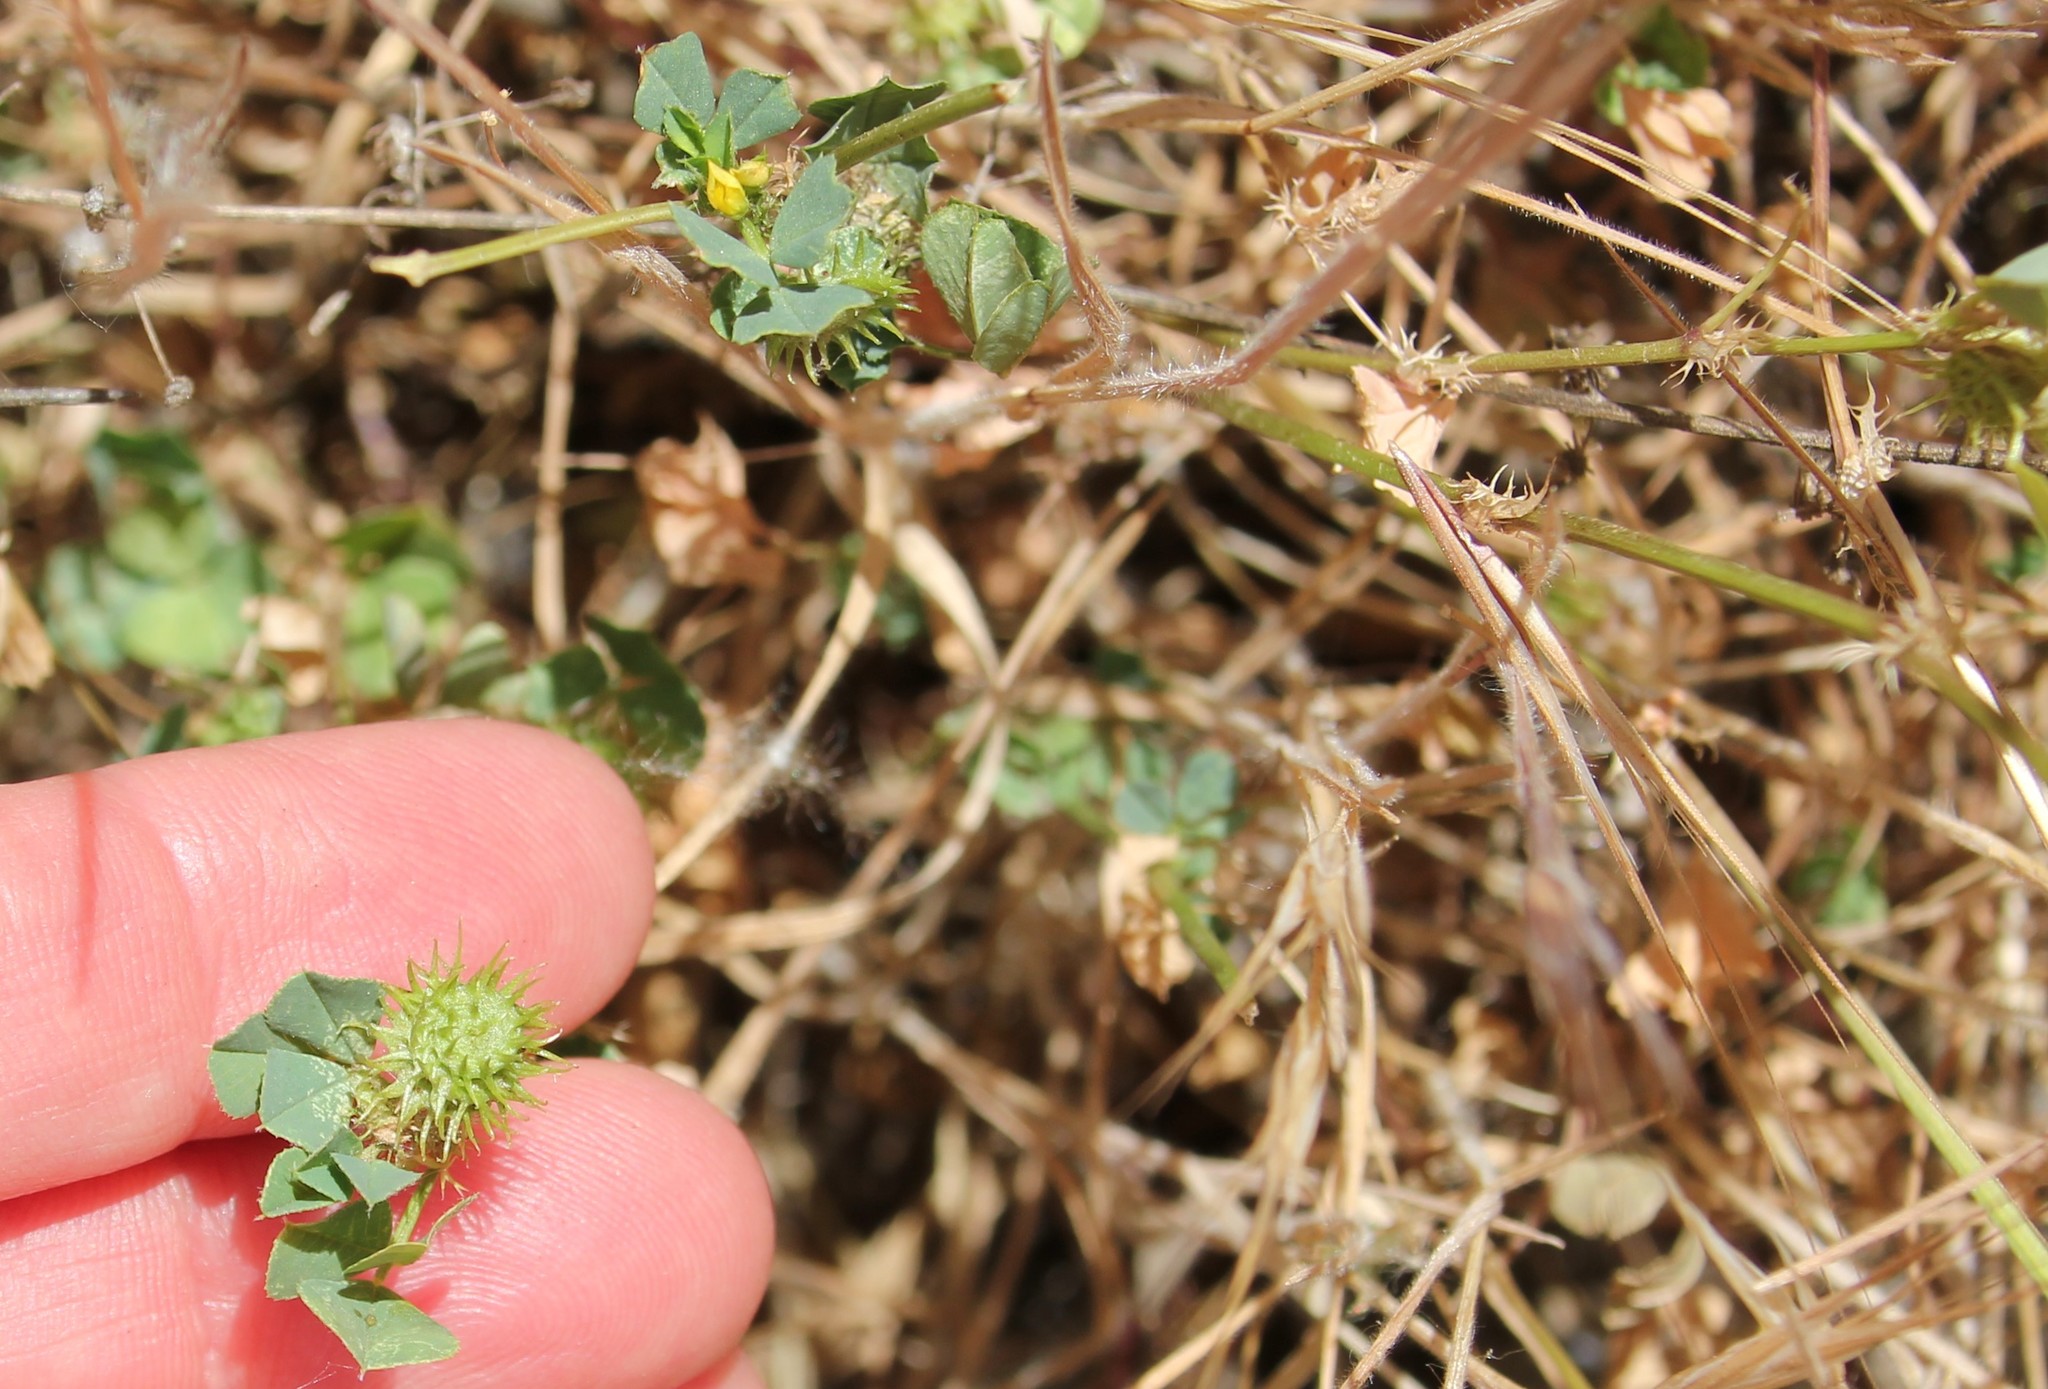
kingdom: Plantae
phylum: Tracheophyta
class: Magnoliopsida
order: Fabales
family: Fabaceae
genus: Medicago
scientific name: Medicago polymorpha
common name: Burclover
